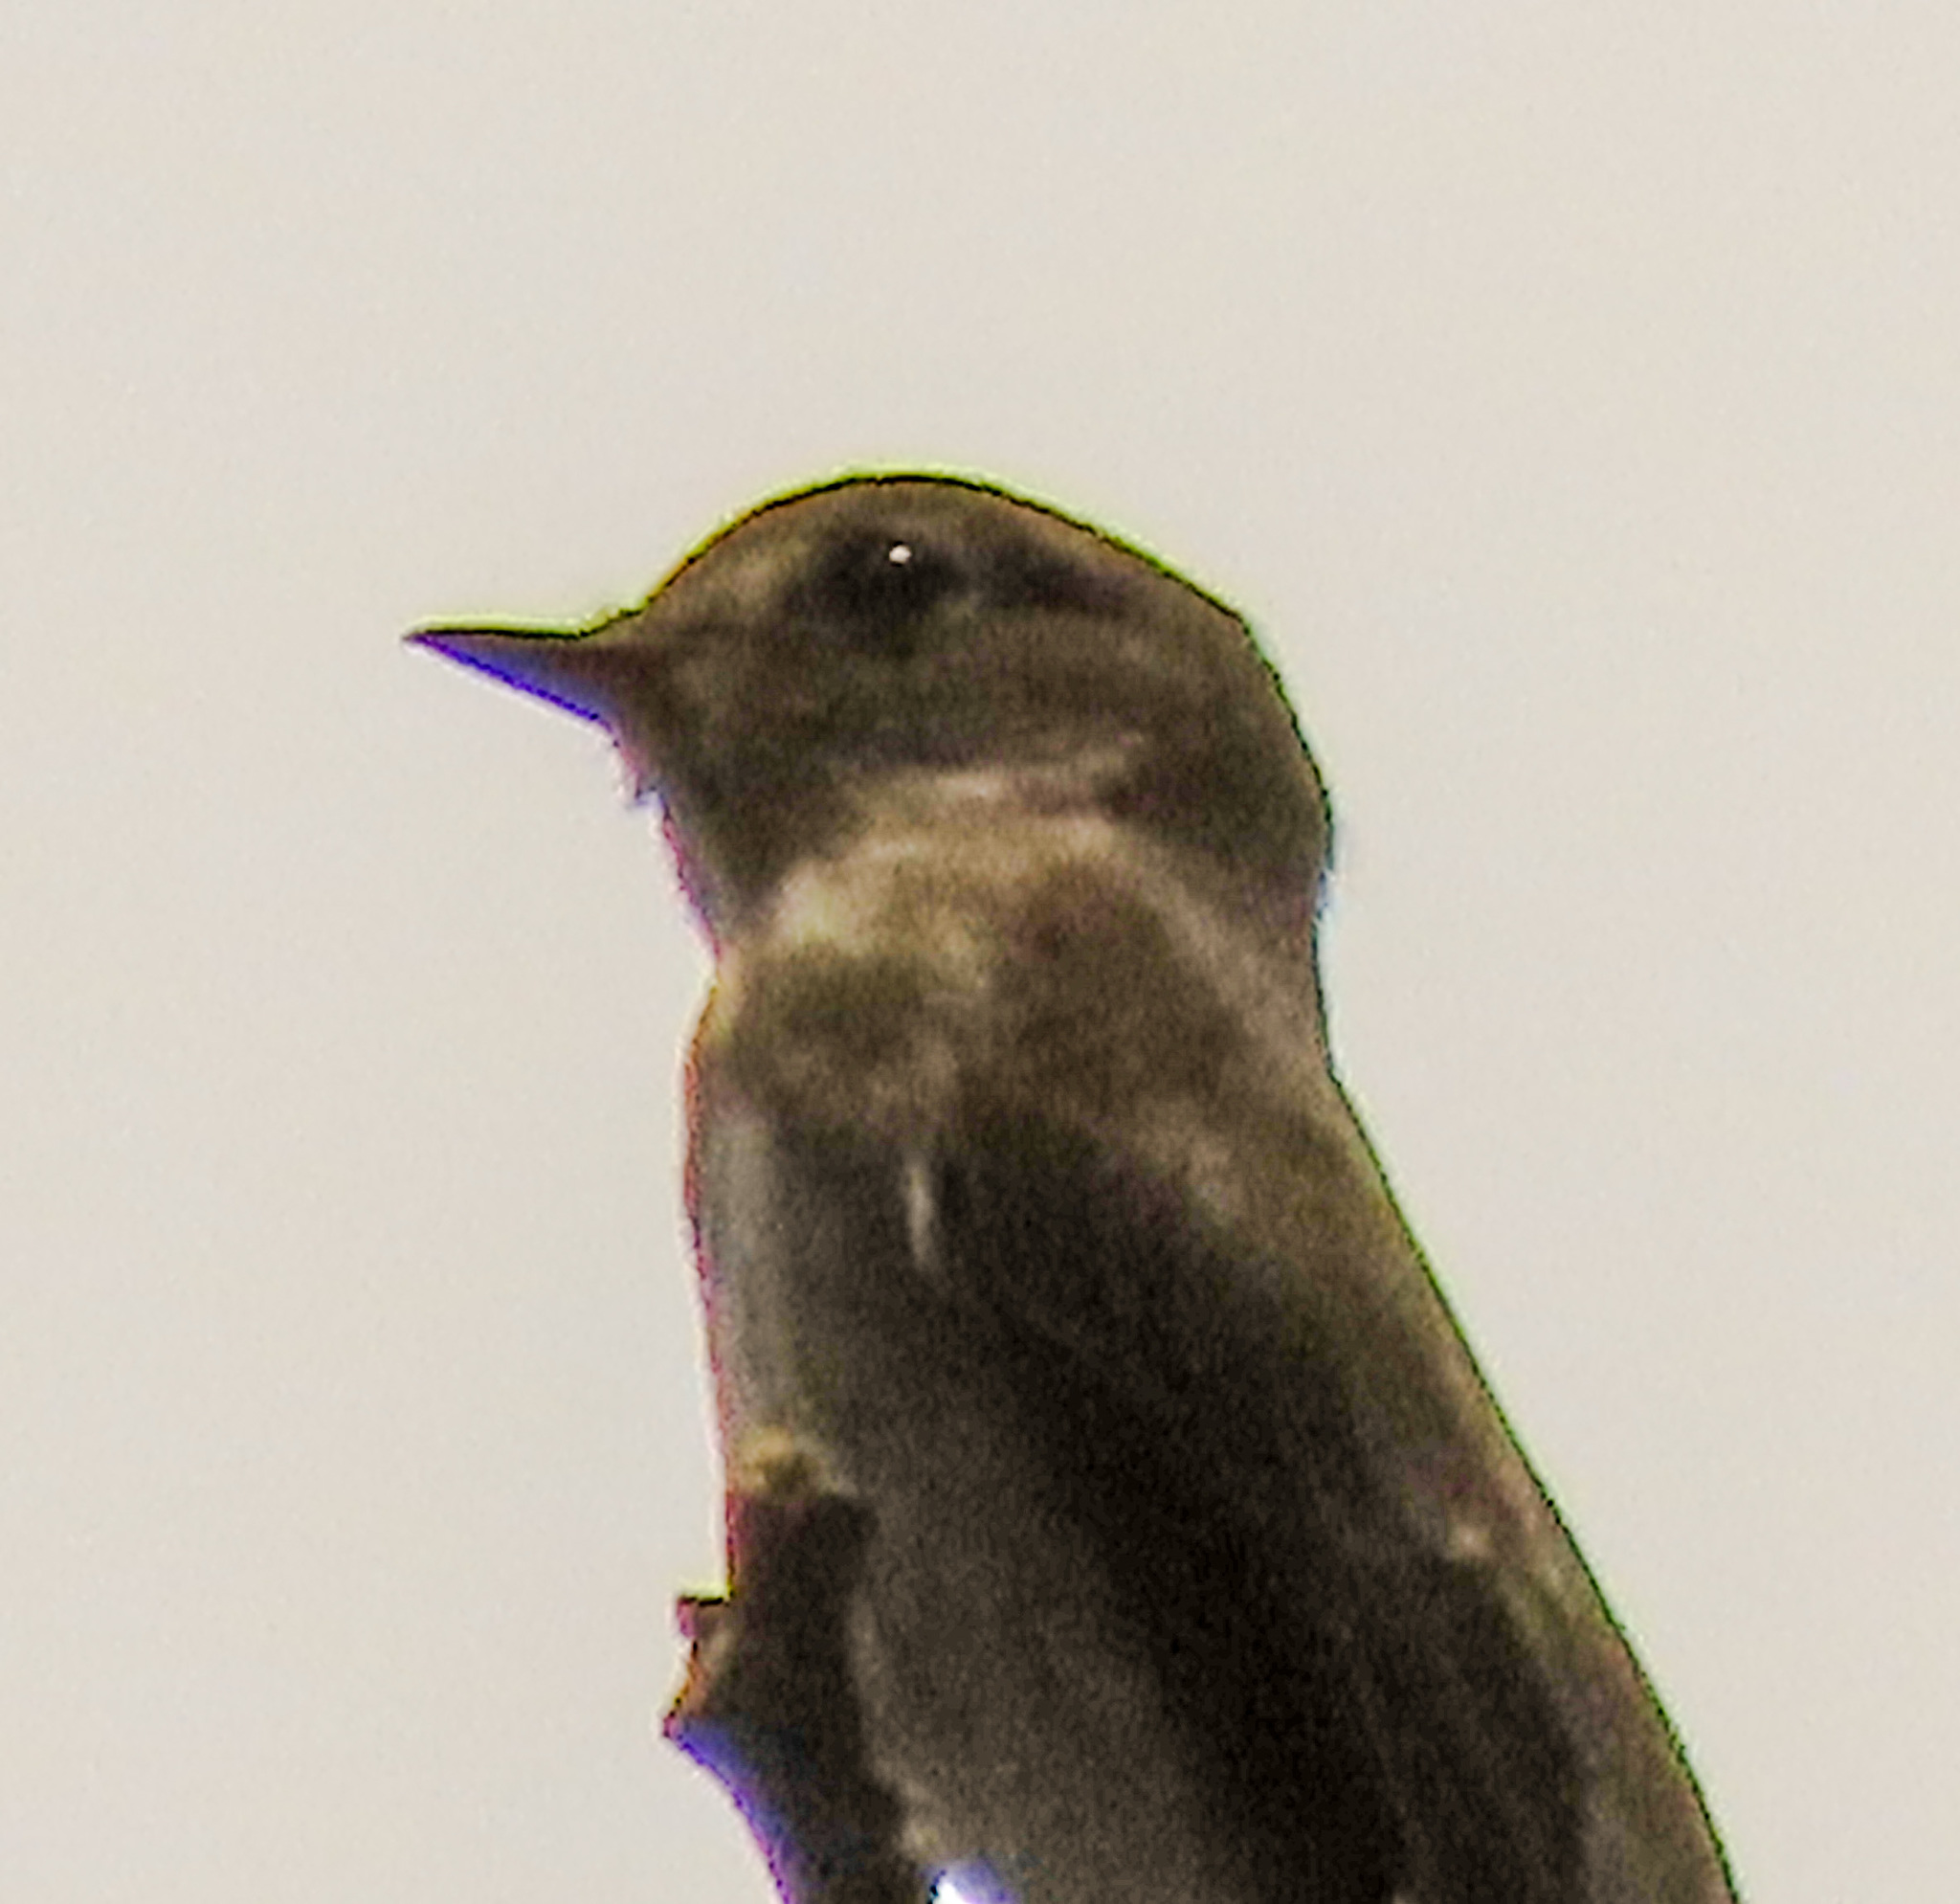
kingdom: Animalia
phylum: Chordata
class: Aves
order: Passeriformes
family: Muscicapidae
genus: Muscicapa
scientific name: Muscicapa sibirica
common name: Dark-sided flycatcher
